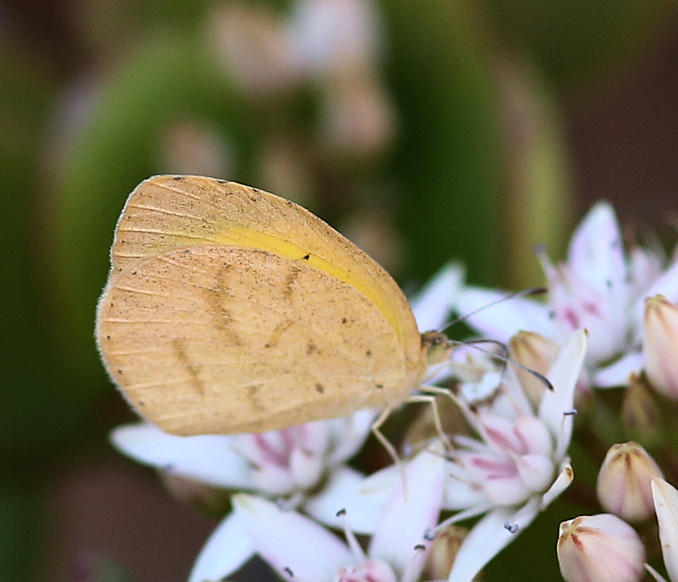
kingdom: Animalia
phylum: Arthropoda
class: Insecta
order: Lepidoptera
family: Pieridae
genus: Eurema
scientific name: Eurema brigitta
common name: Small grass yellow
